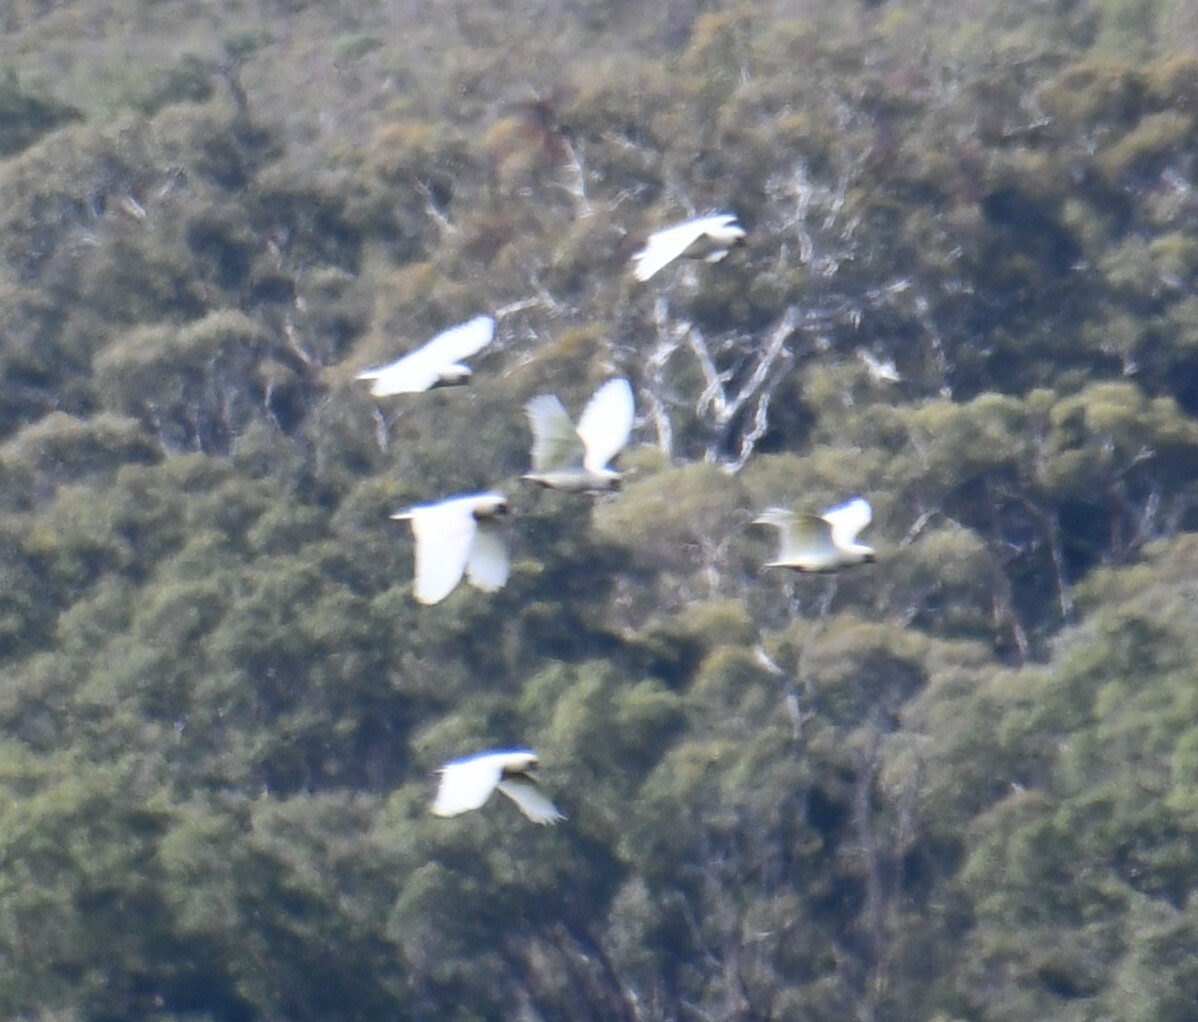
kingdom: Animalia
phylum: Chordata
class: Aves
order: Psittaciformes
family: Psittacidae
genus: Cacatua
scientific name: Cacatua sanguinea
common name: Little corella
